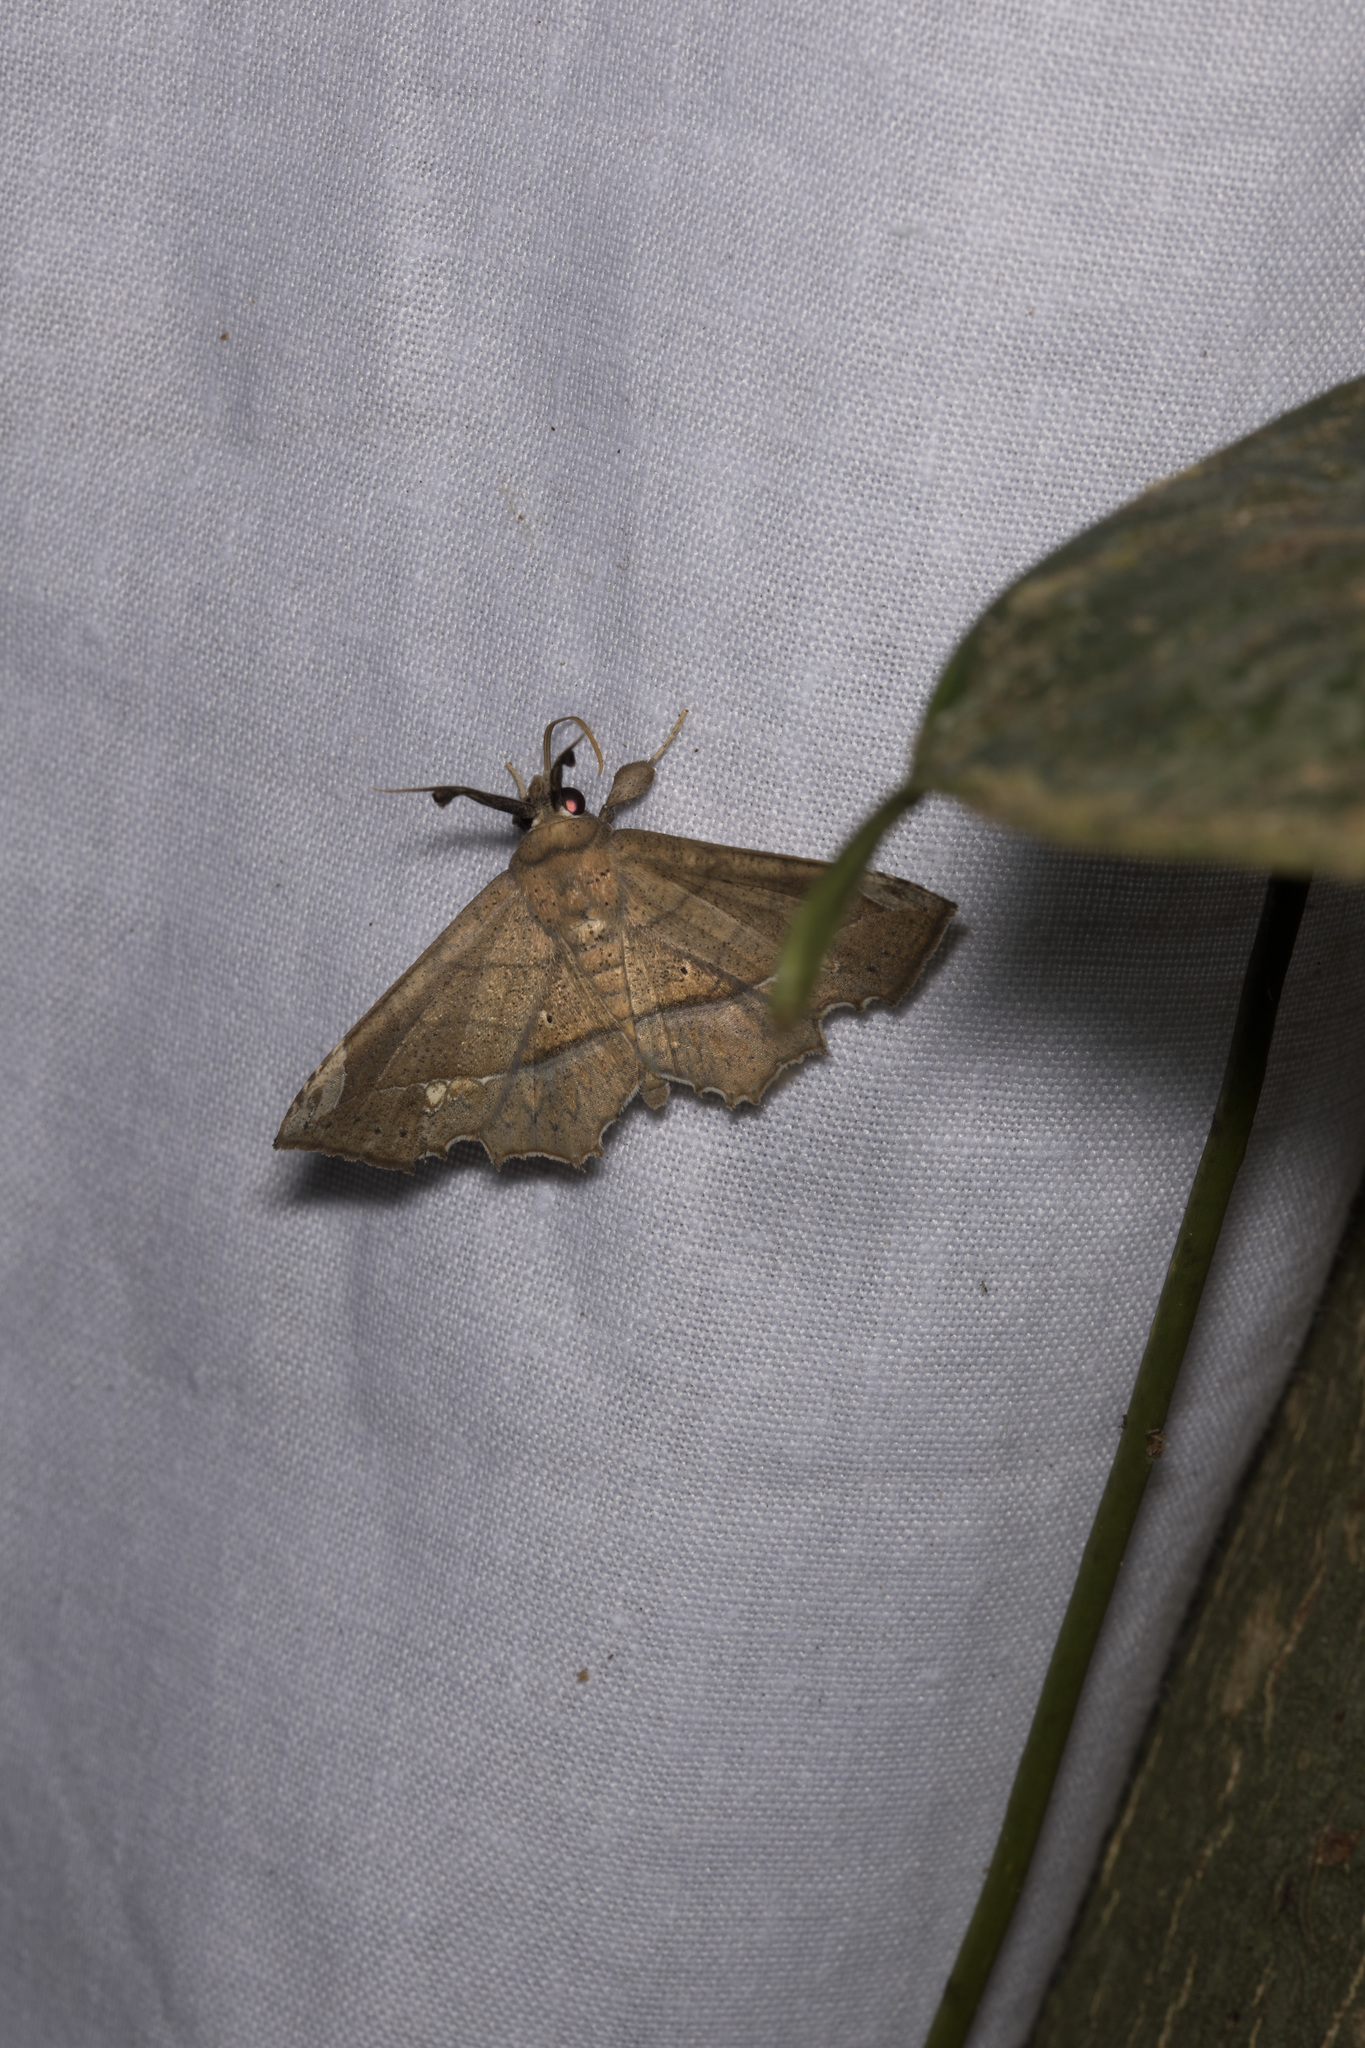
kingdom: Animalia
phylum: Arthropoda
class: Insecta
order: Lepidoptera
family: Erebidae
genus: Syllectra
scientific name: Syllectra erycata
